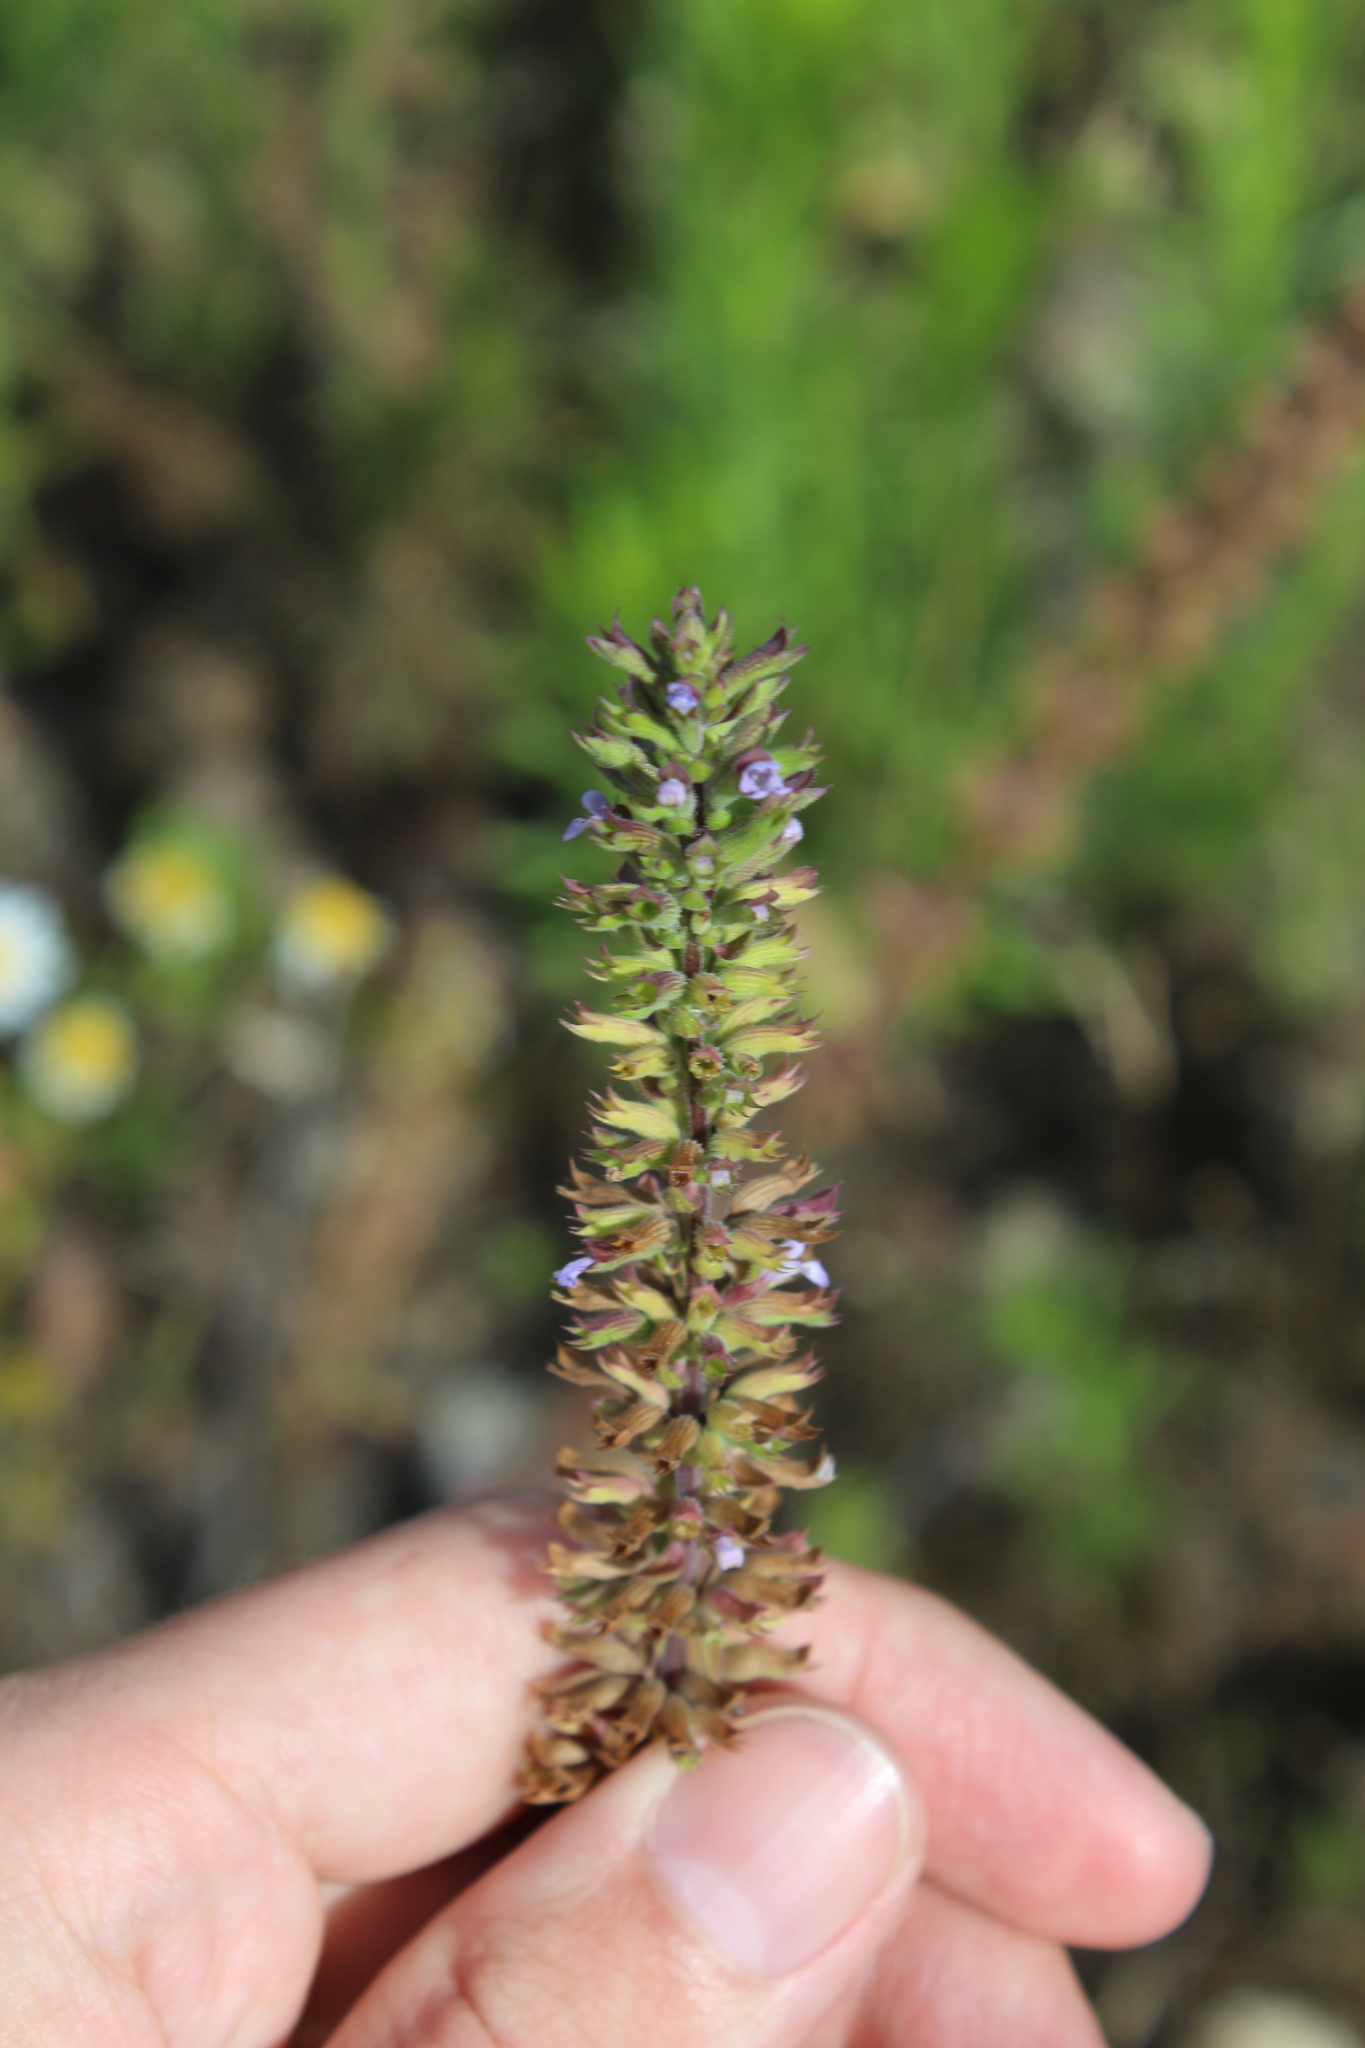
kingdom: Plantae
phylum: Tracheophyta
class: Magnoliopsida
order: Lamiales
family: Lamiaceae
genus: Dracocephalum
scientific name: Dracocephalum thymiflorum
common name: Thymeleaf dragonhead
